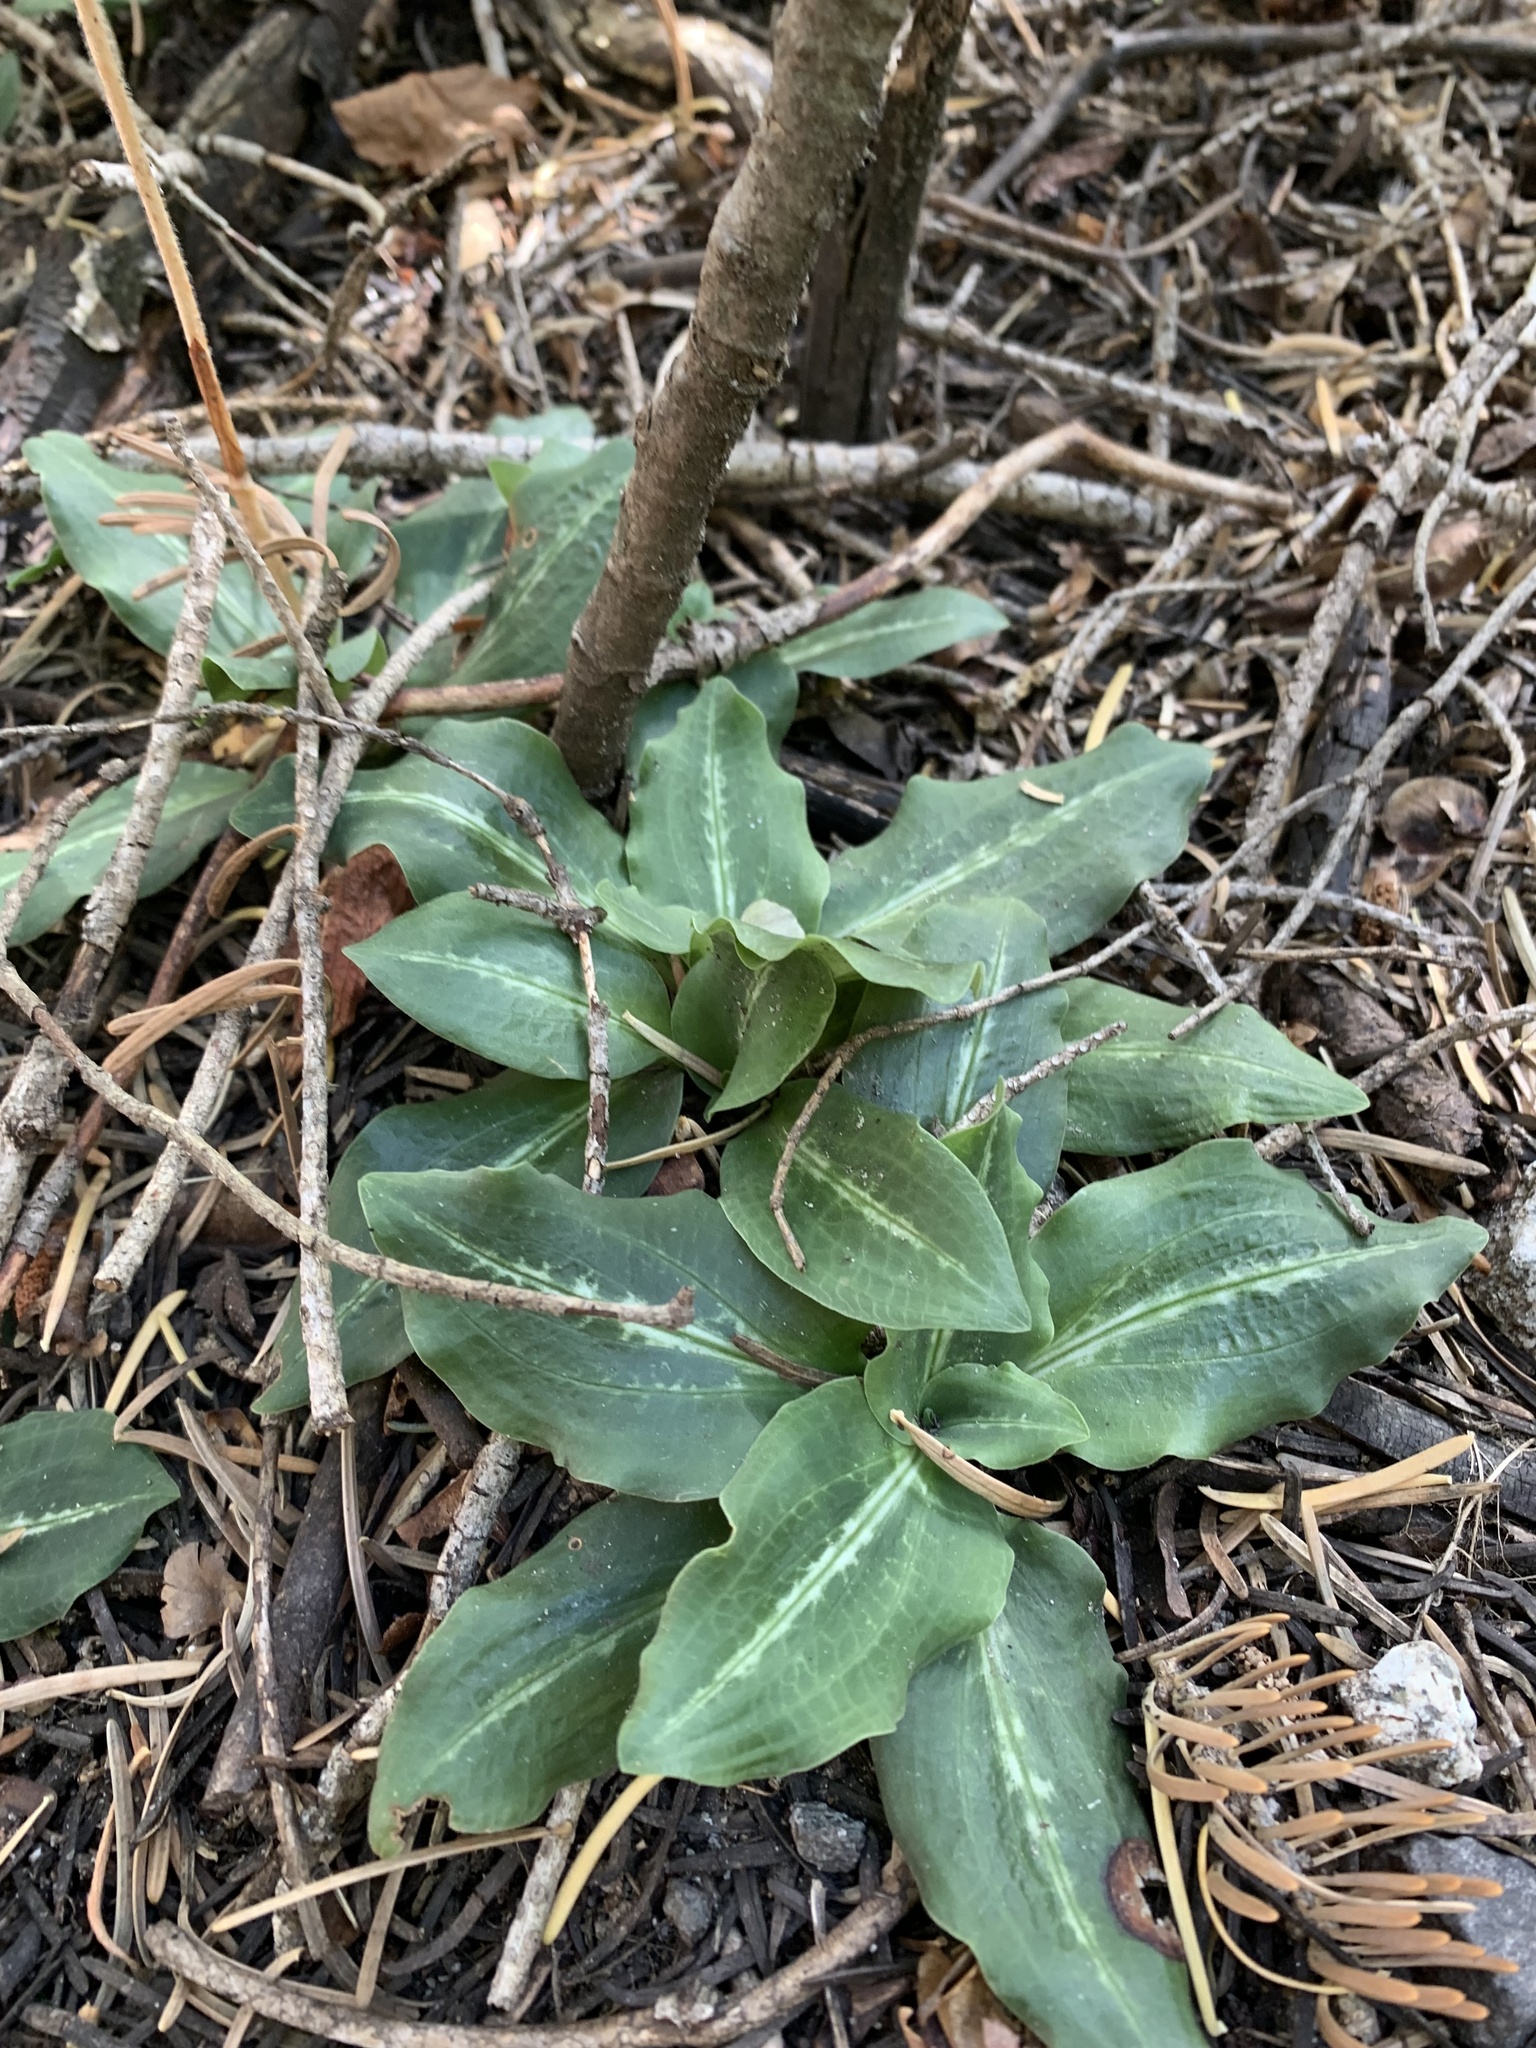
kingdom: Plantae
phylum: Tracheophyta
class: Liliopsida
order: Asparagales
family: Orchidaceae
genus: Goodyera
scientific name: Goodyera oblongifolia
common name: Giant rattlesnake-plantain
